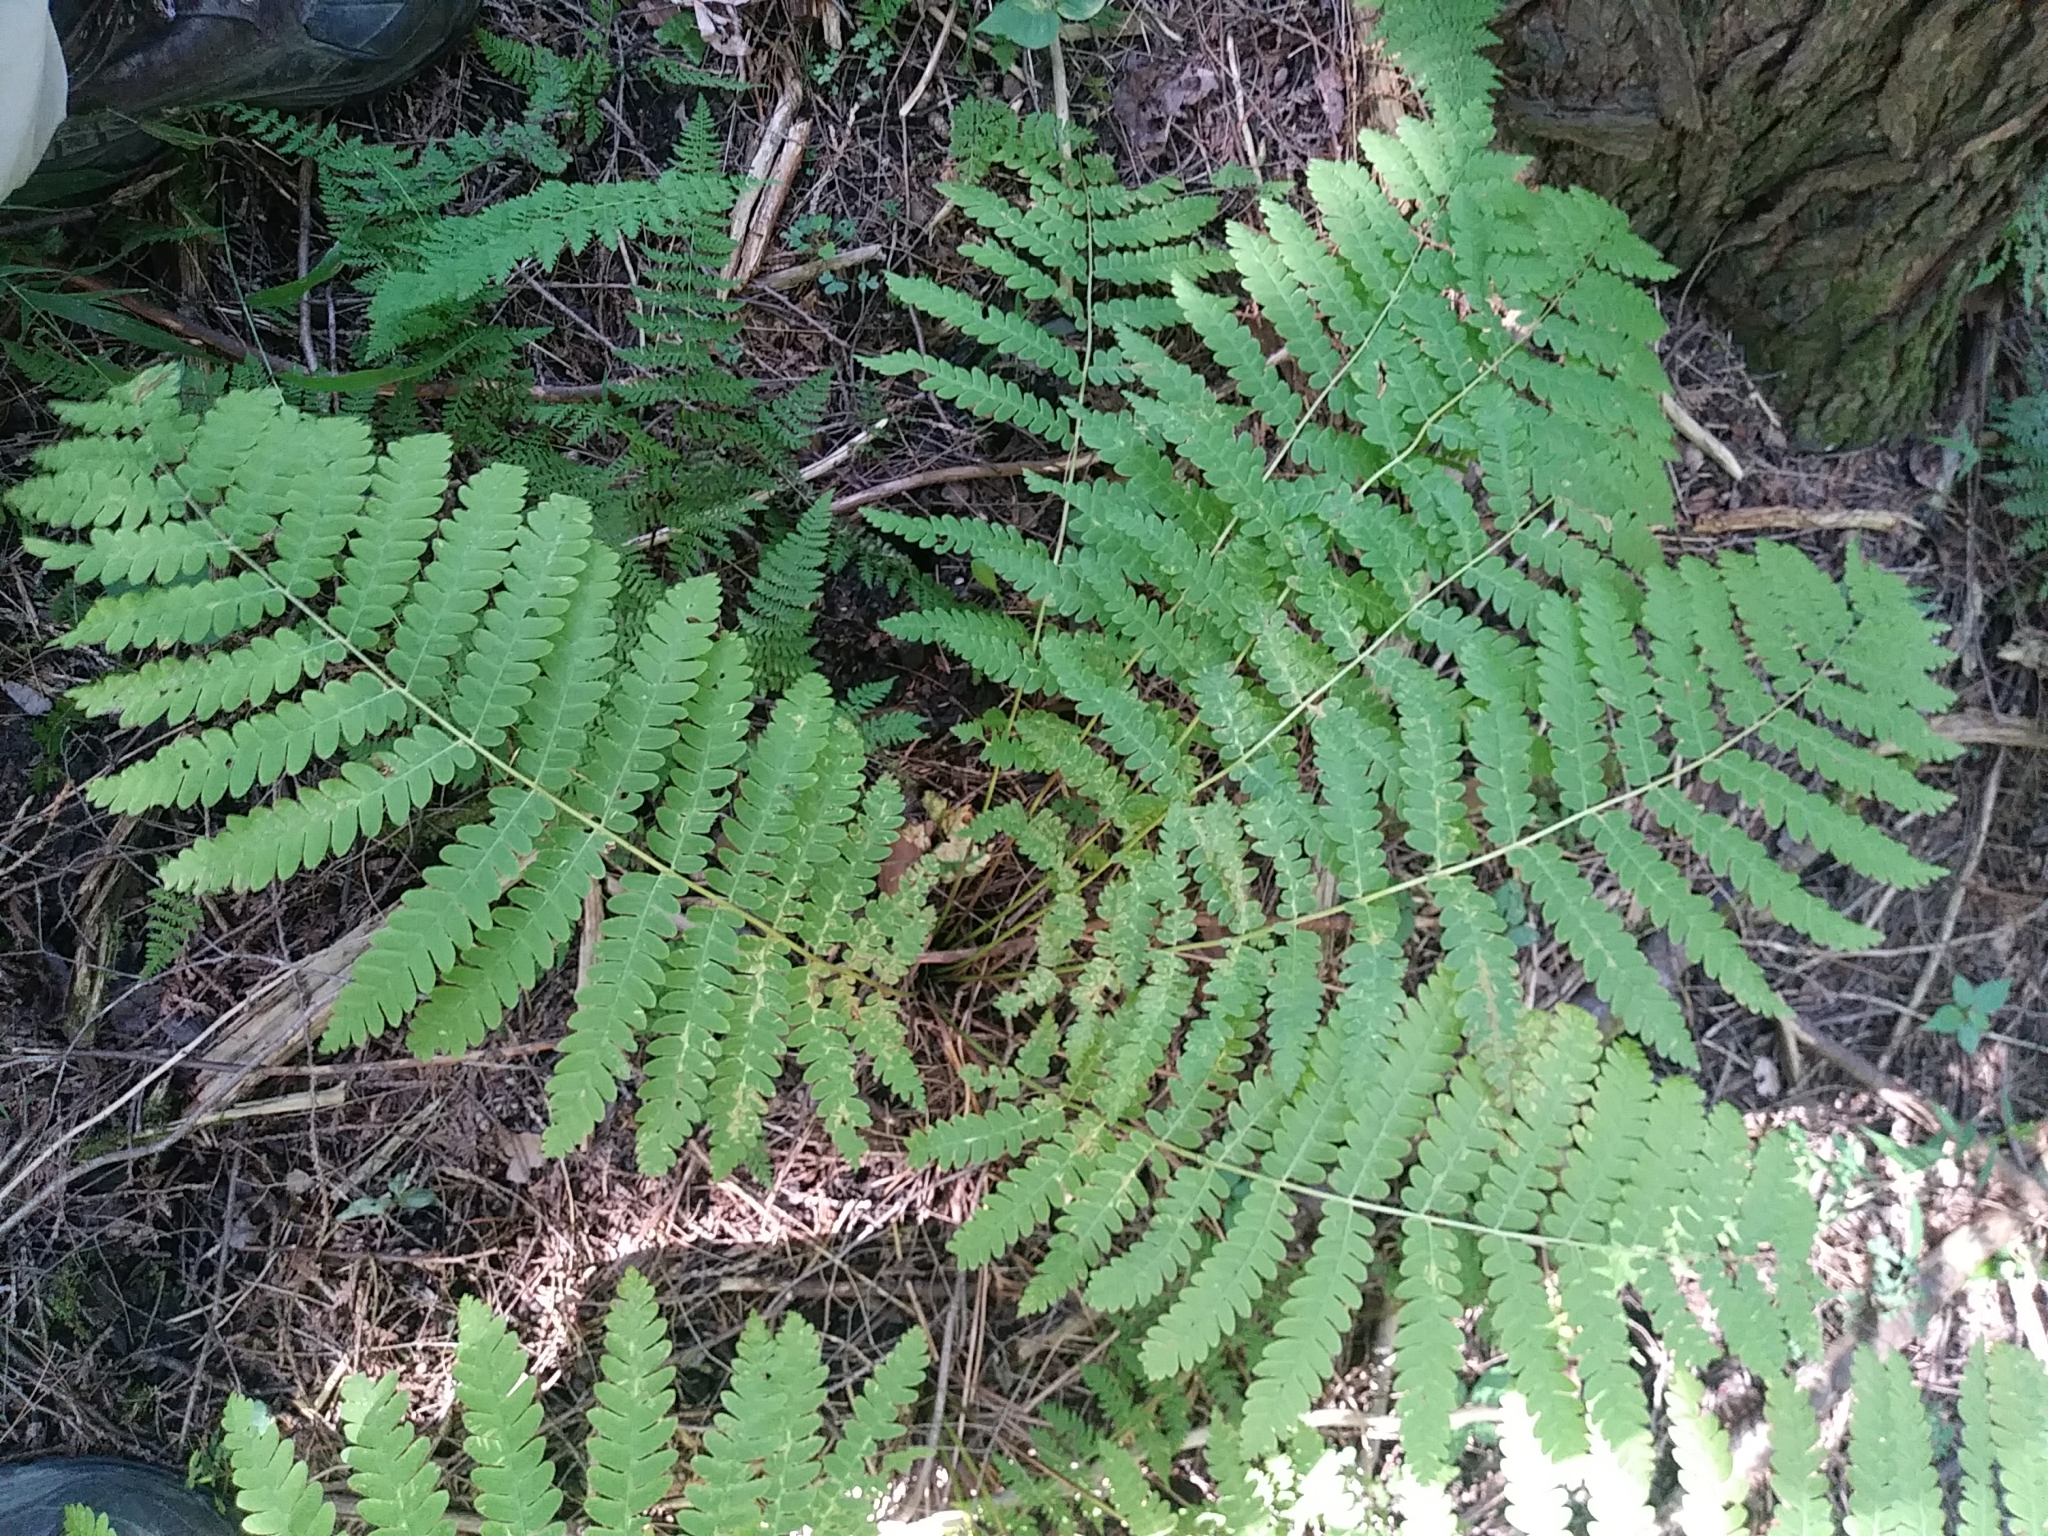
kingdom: Plantae
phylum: Tracheophyta
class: Polypodiopsida
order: Osmundales
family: Osmundaceae
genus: Claytosmunda
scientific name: Claytosmunda claytoniana
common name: Clayton's fern
